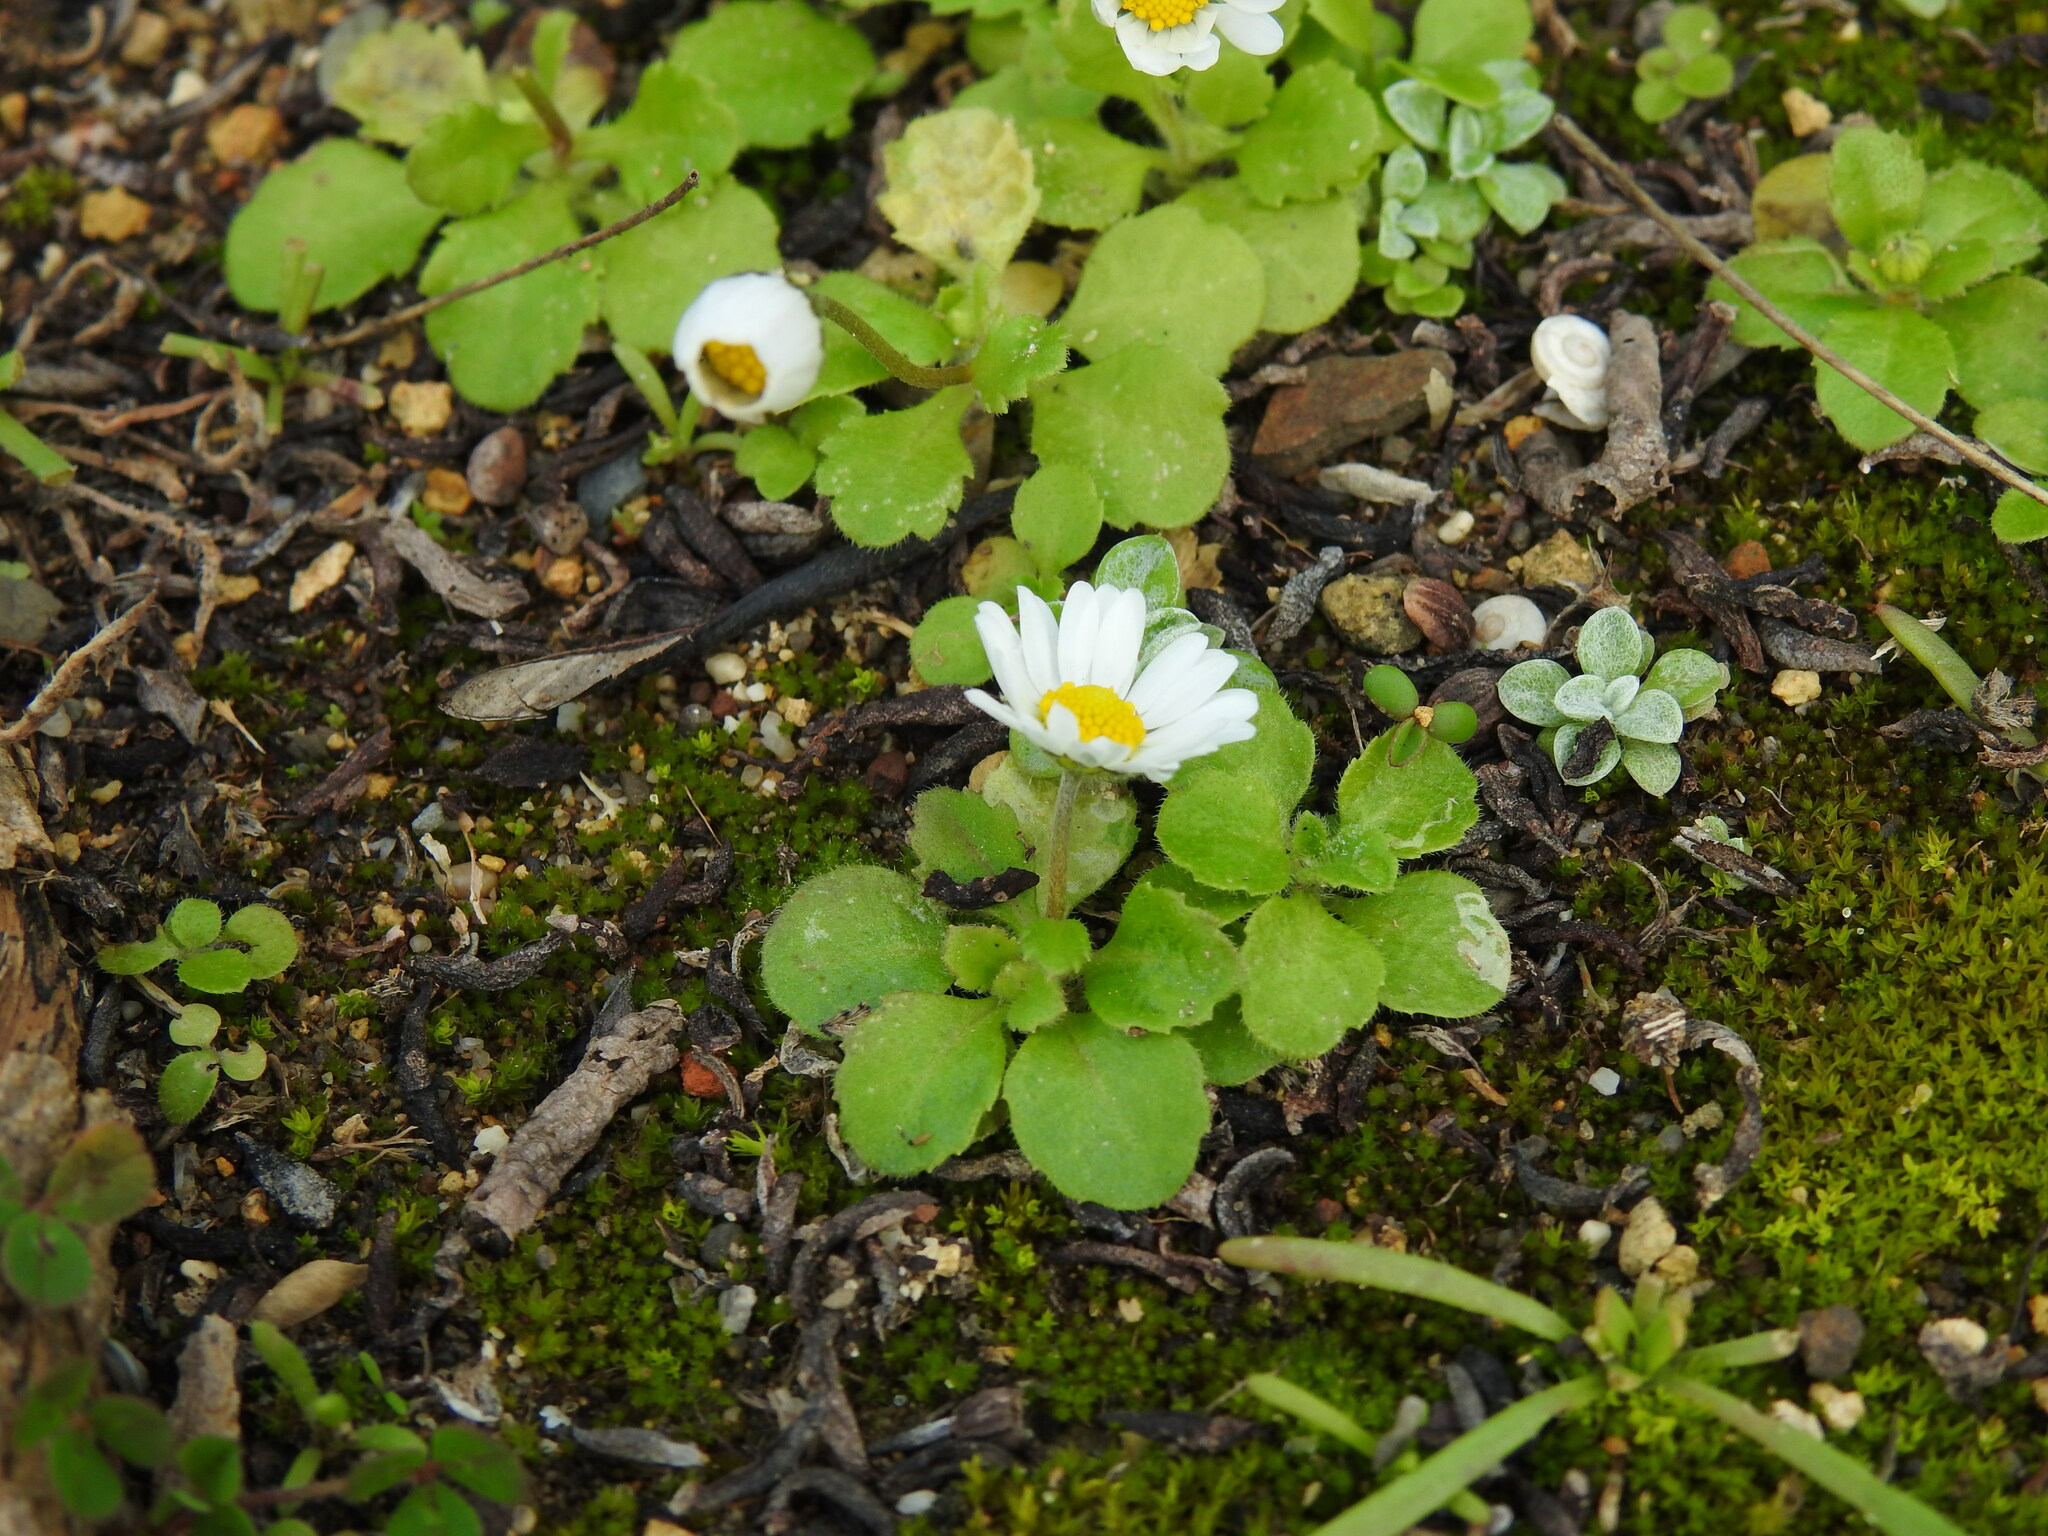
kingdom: Plantae
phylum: Tracheophyta
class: Magnoliopsida
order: Asterales
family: Asteraceae
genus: Bellis
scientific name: Bellis annua
